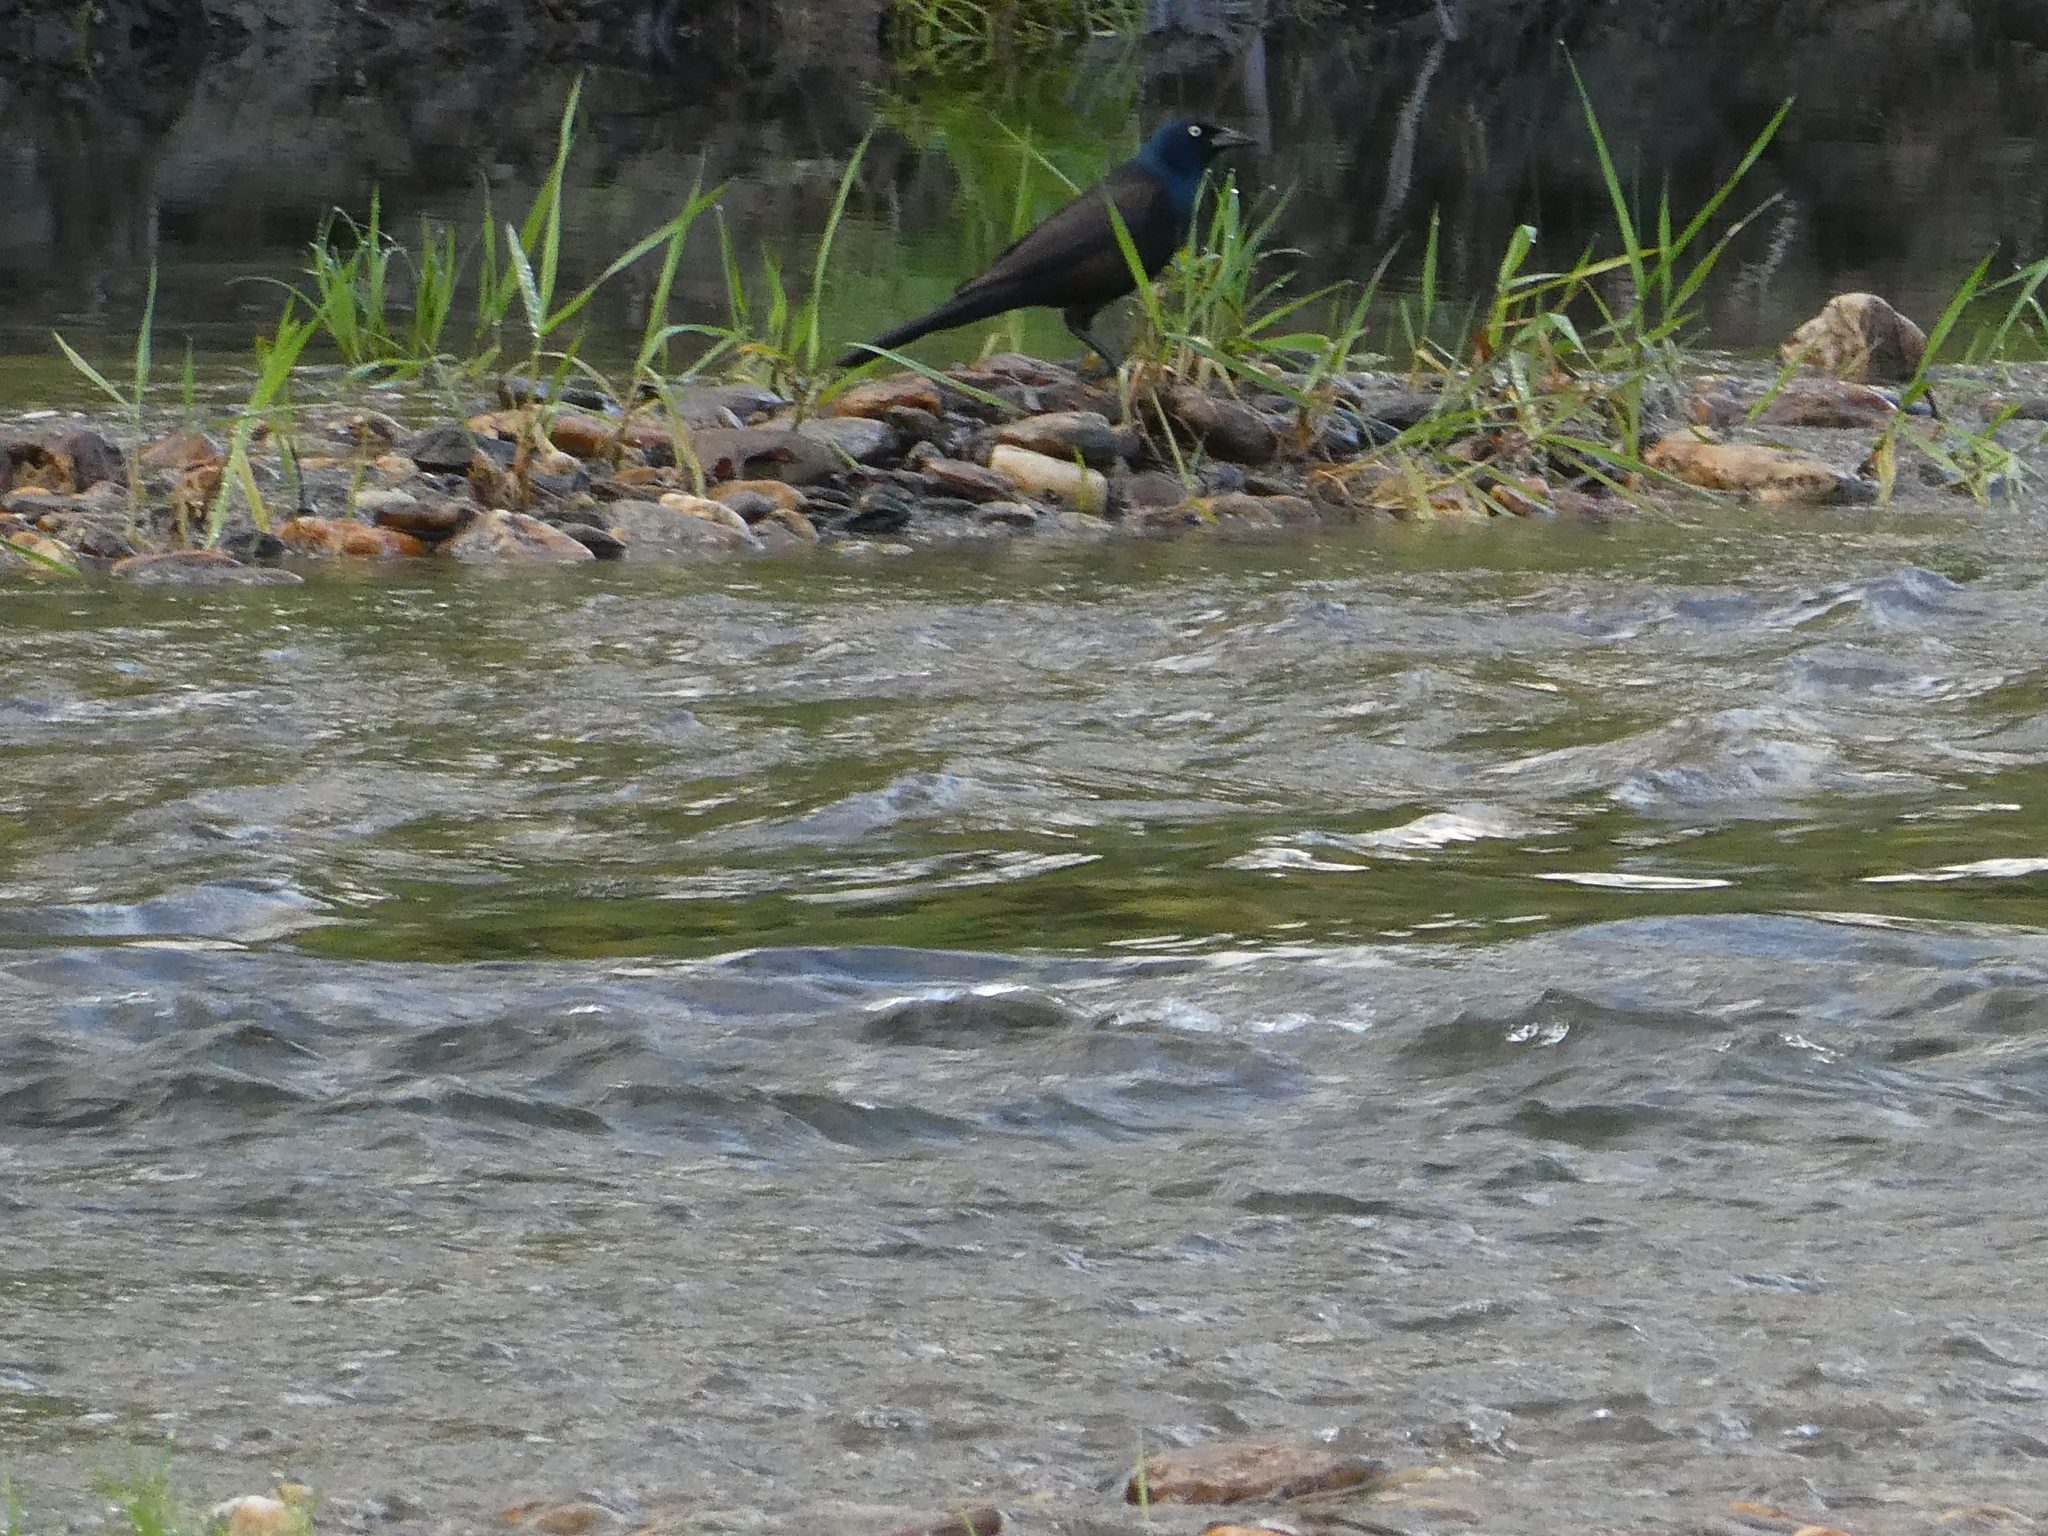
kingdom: Animalia
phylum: Chordata
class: Aves
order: Passeriformes
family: Icteridae
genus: Quiscalus
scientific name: Quiscalus quiscula
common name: Common grackle
